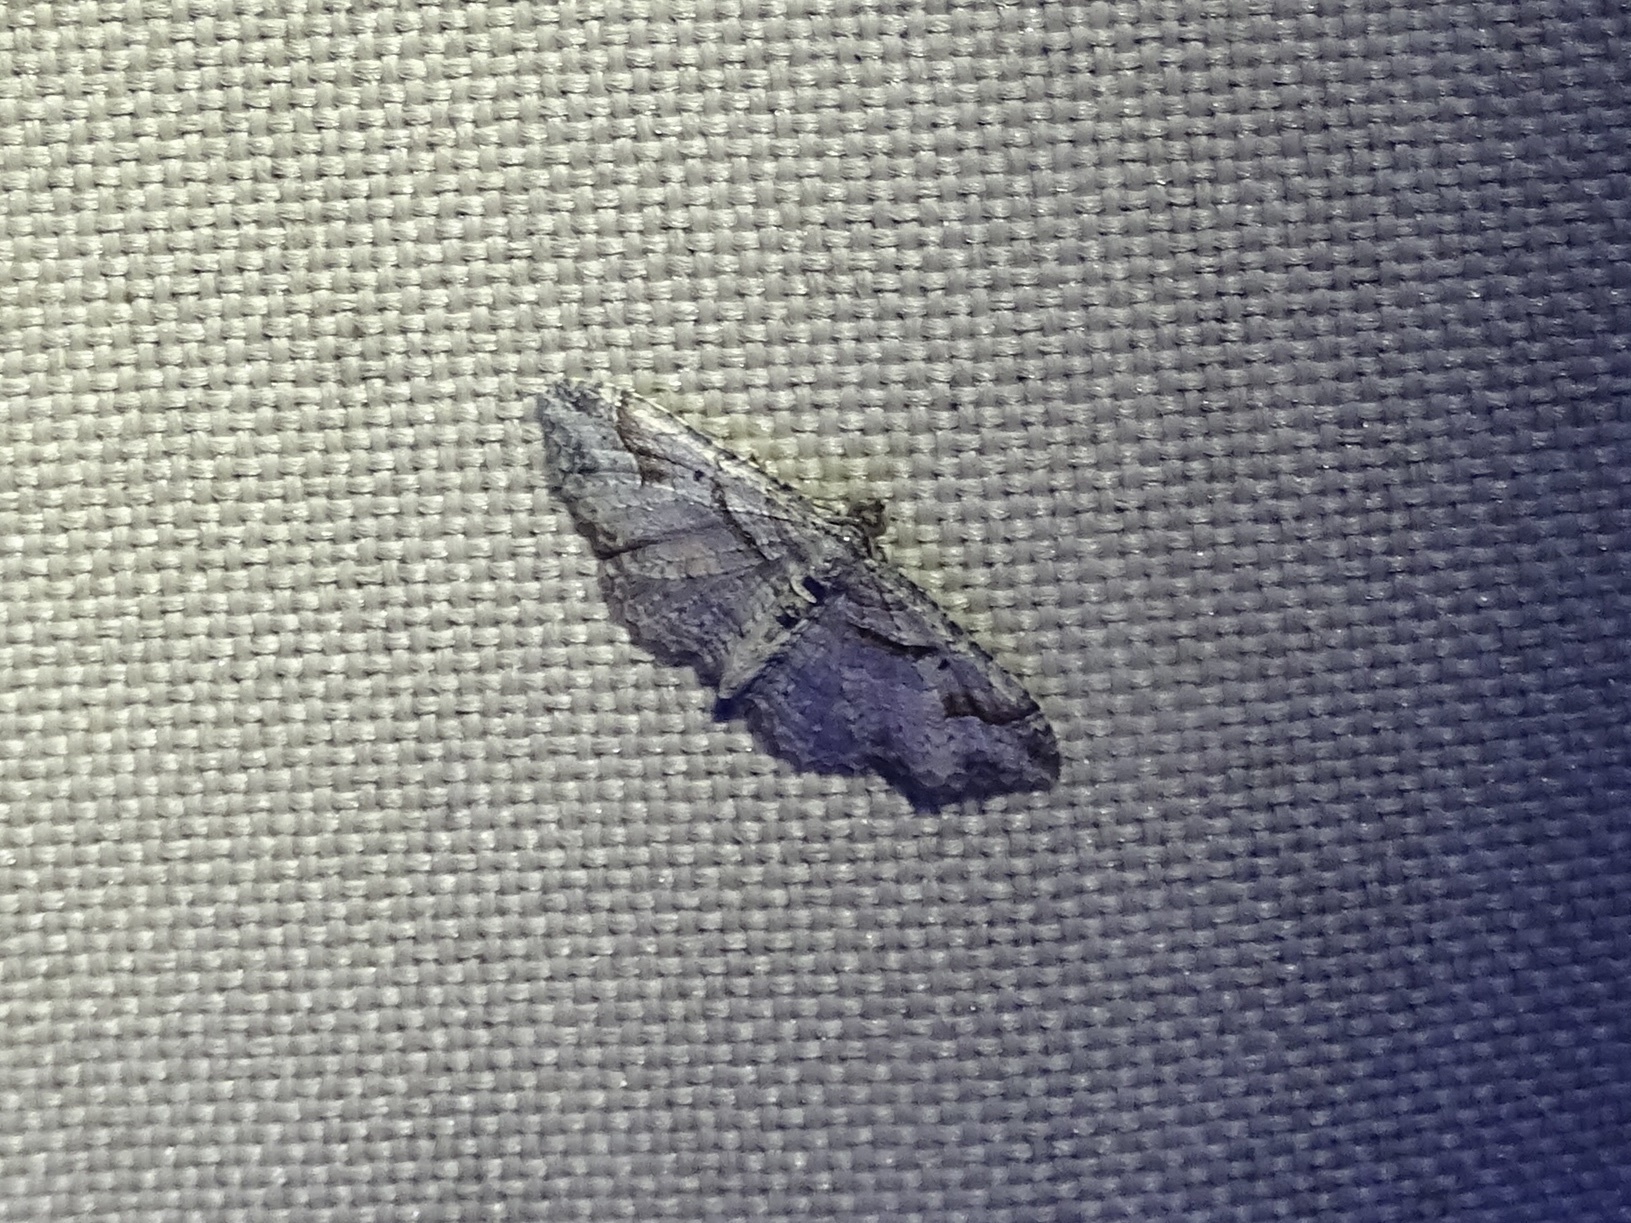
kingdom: Animalia
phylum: Arthropoda
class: Insecta
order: Lepidoptera
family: Geometridae
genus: Costaconvexa
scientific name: Costaconvexa centrostrigaria
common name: Bent-line carpet
